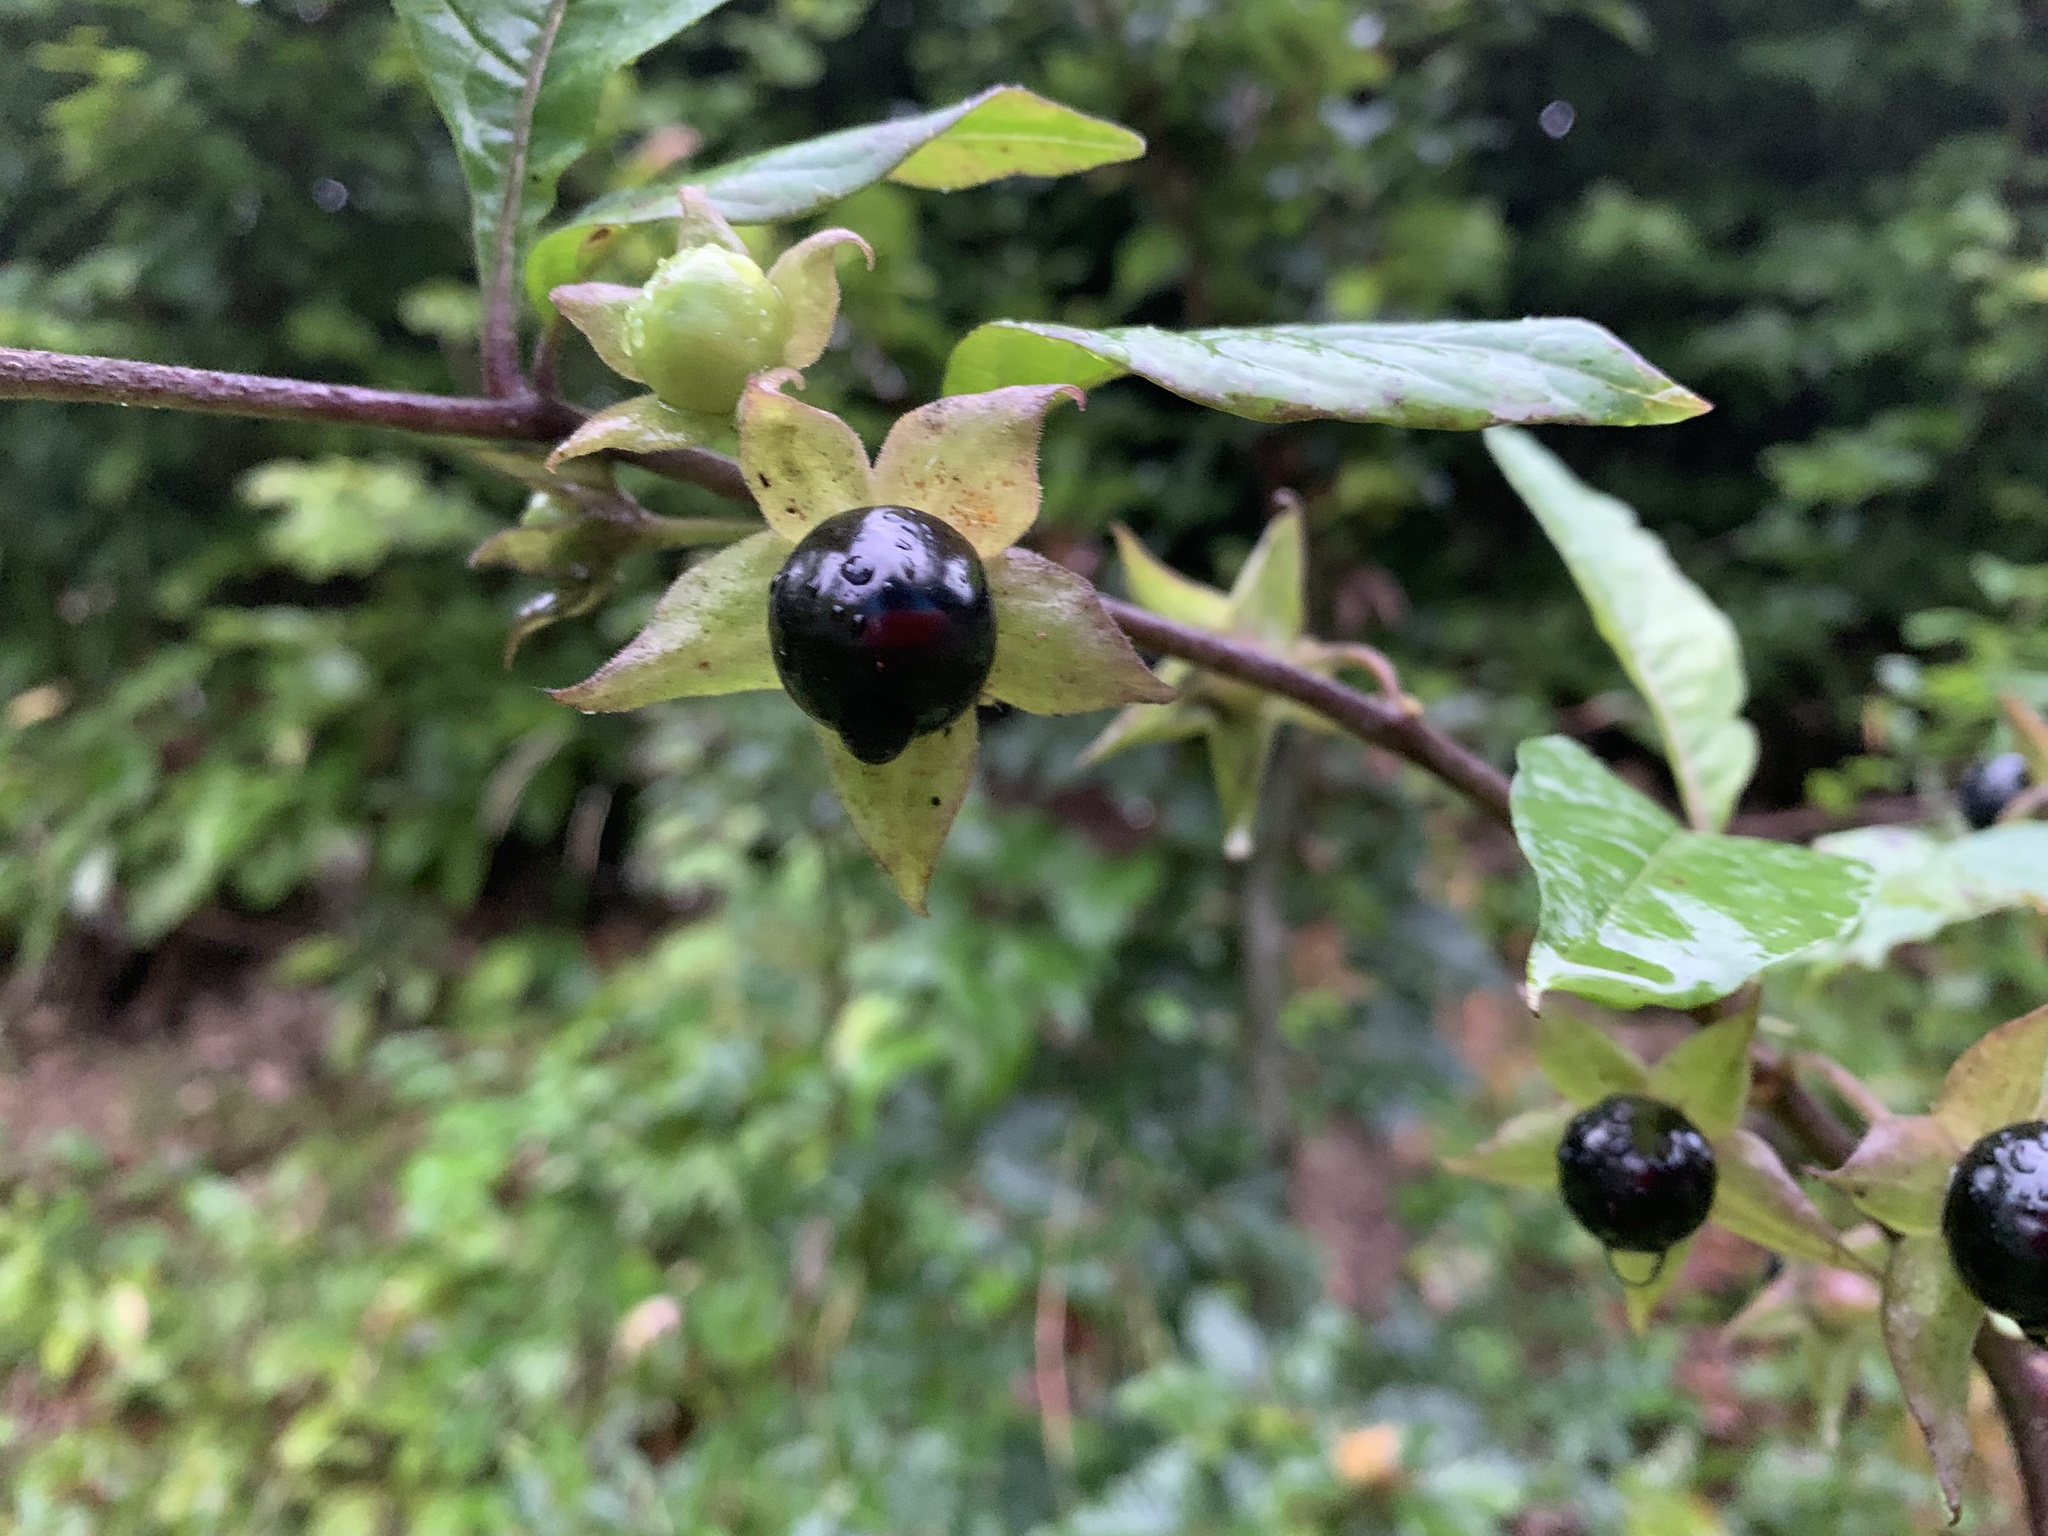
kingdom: Plantae
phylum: Tracheophyta
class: Magnoliopsida
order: Solanales
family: Solanaceae
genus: Atropa
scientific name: Atropa belladonna
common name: Deadly nightshade
